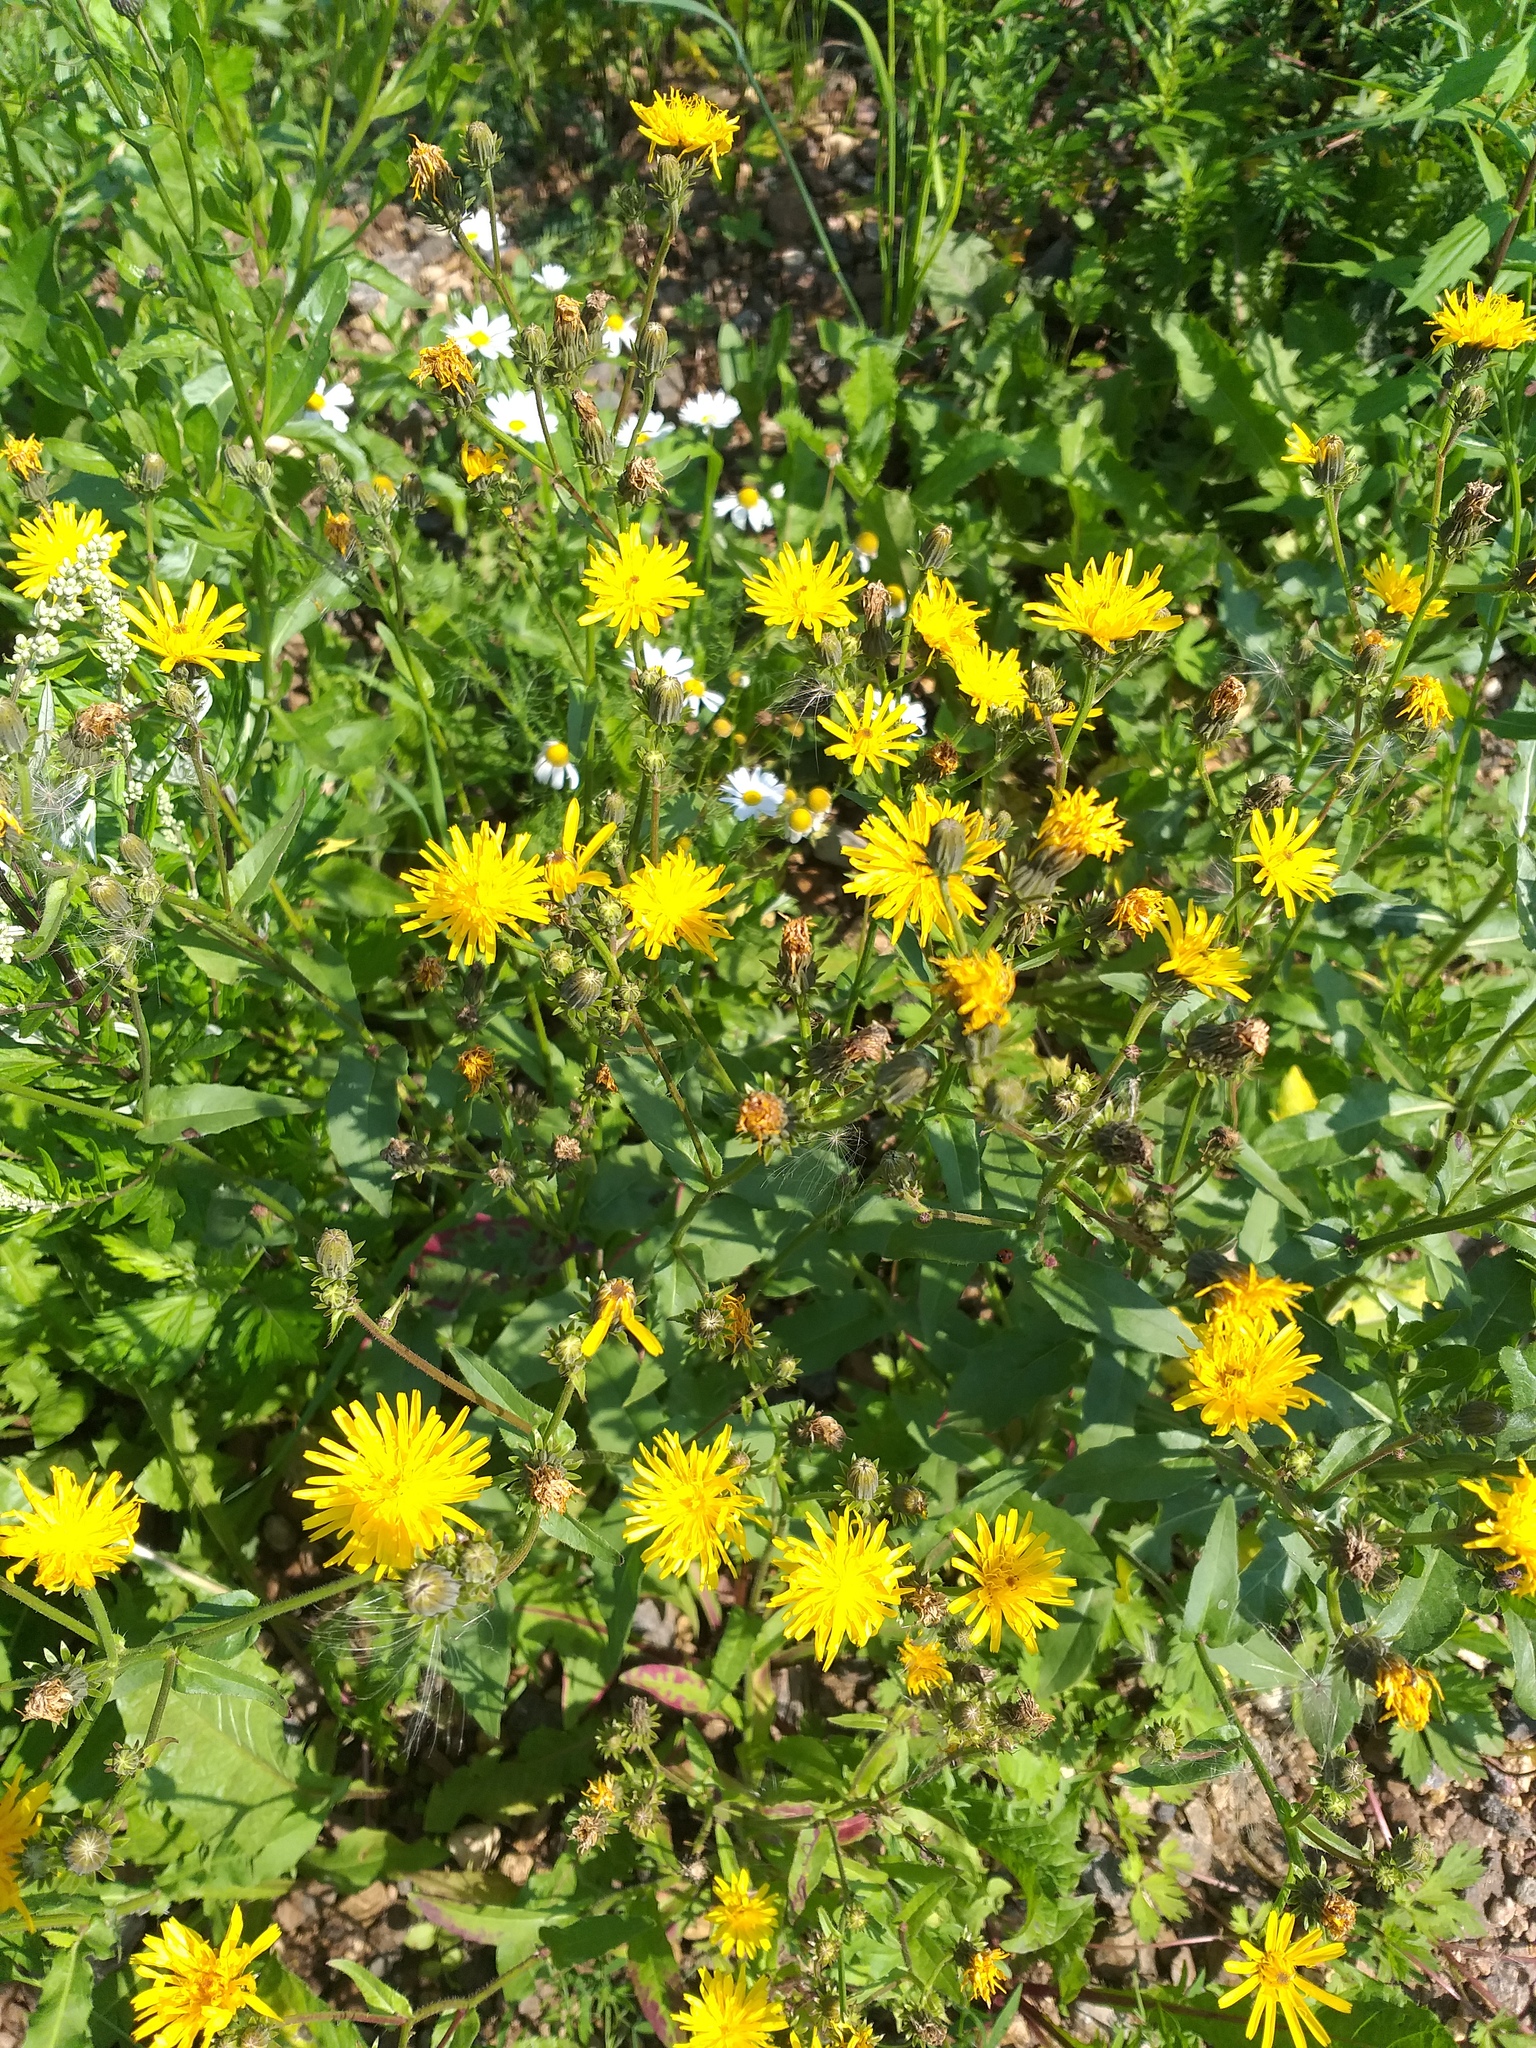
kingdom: Plantae
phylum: Tracheophyta
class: Magnoliopsida
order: Asterales
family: Asteraceae
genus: Picris
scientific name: Picris hieracioides
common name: Hawkweed oxtongue
